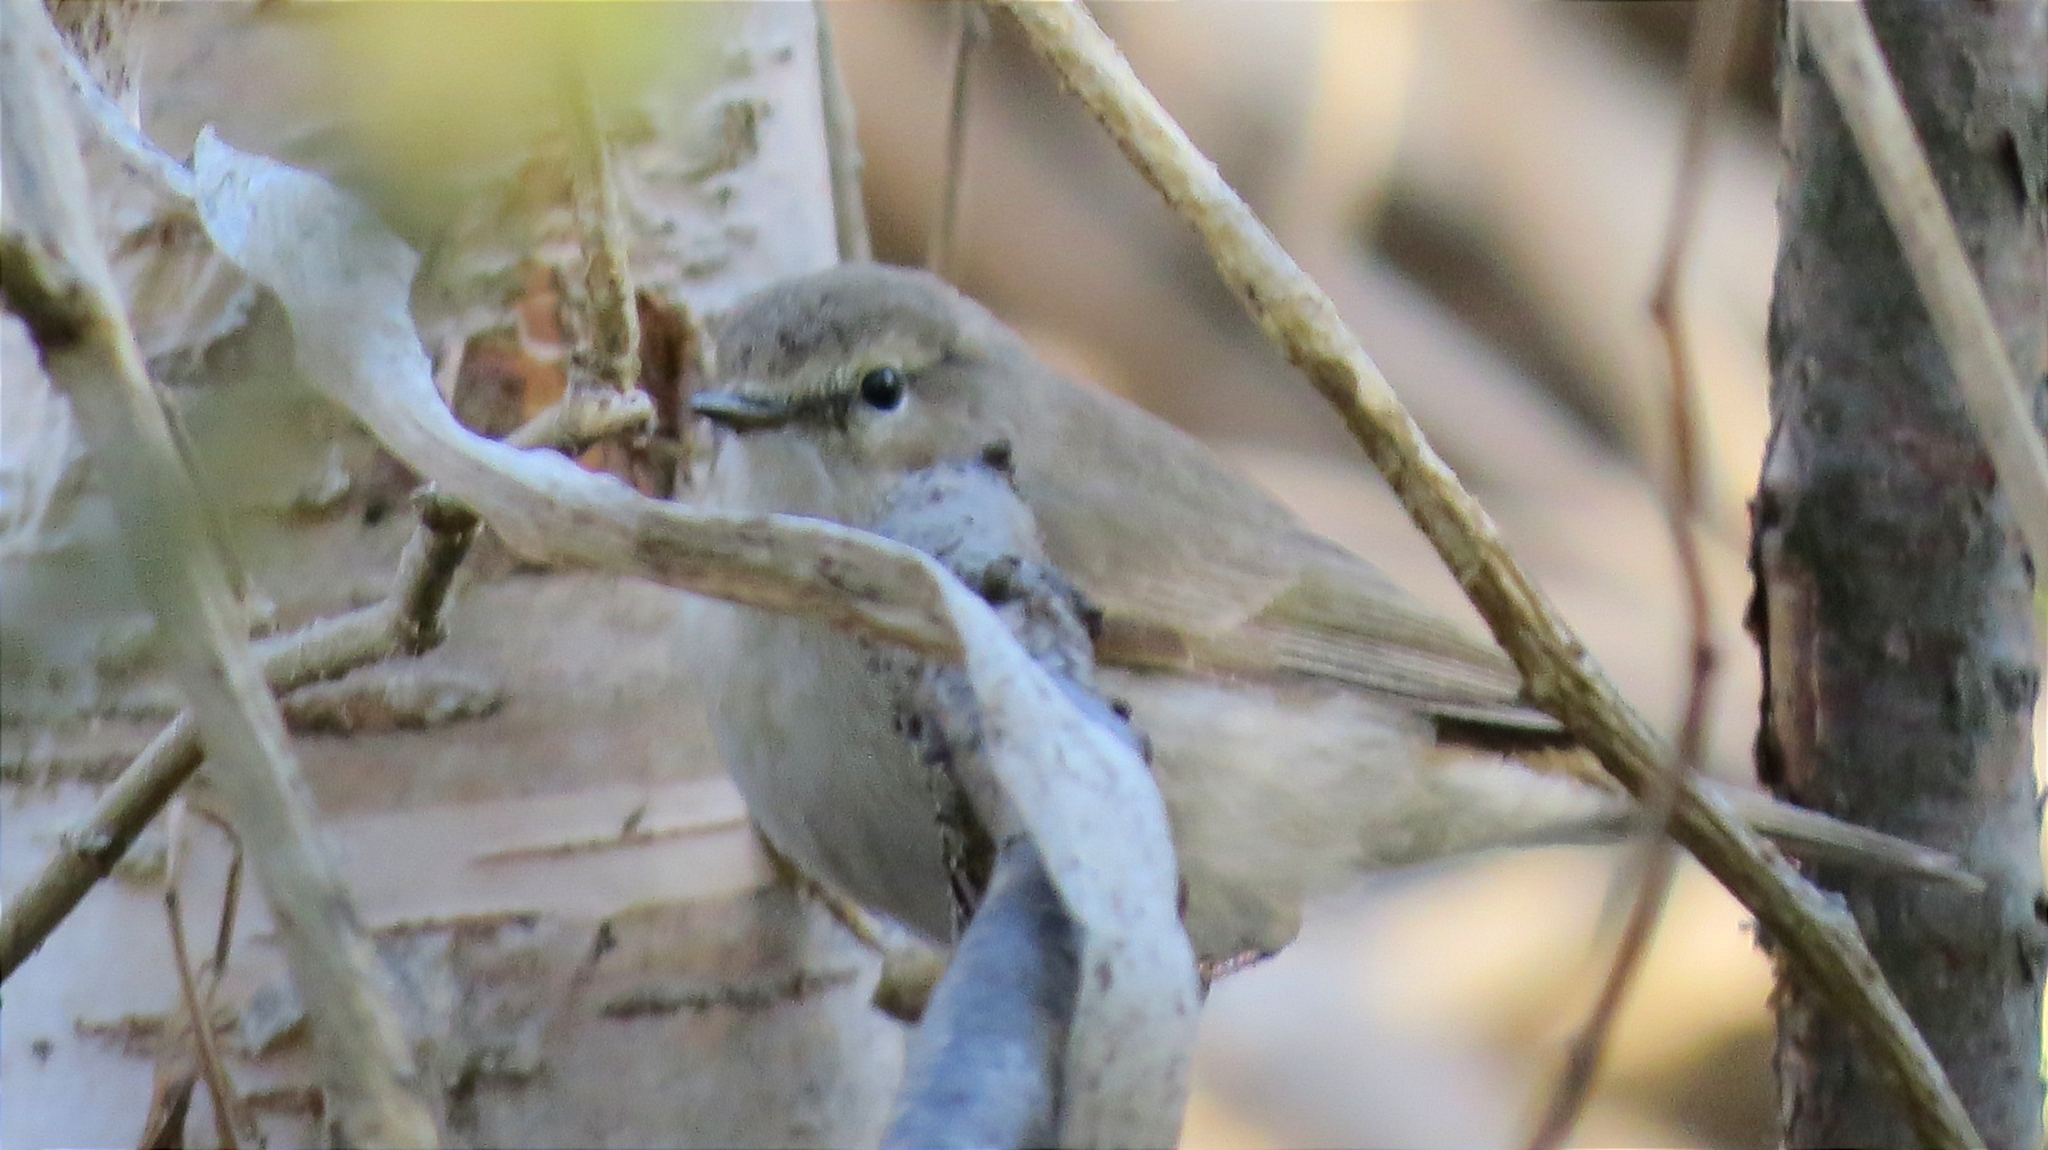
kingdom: Animalia
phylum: Chordata
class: Aves
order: Passeriformes
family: Phylloscopidae
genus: Phylloscopus
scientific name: Phylloscopus collybita
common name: Common chiffchaff
